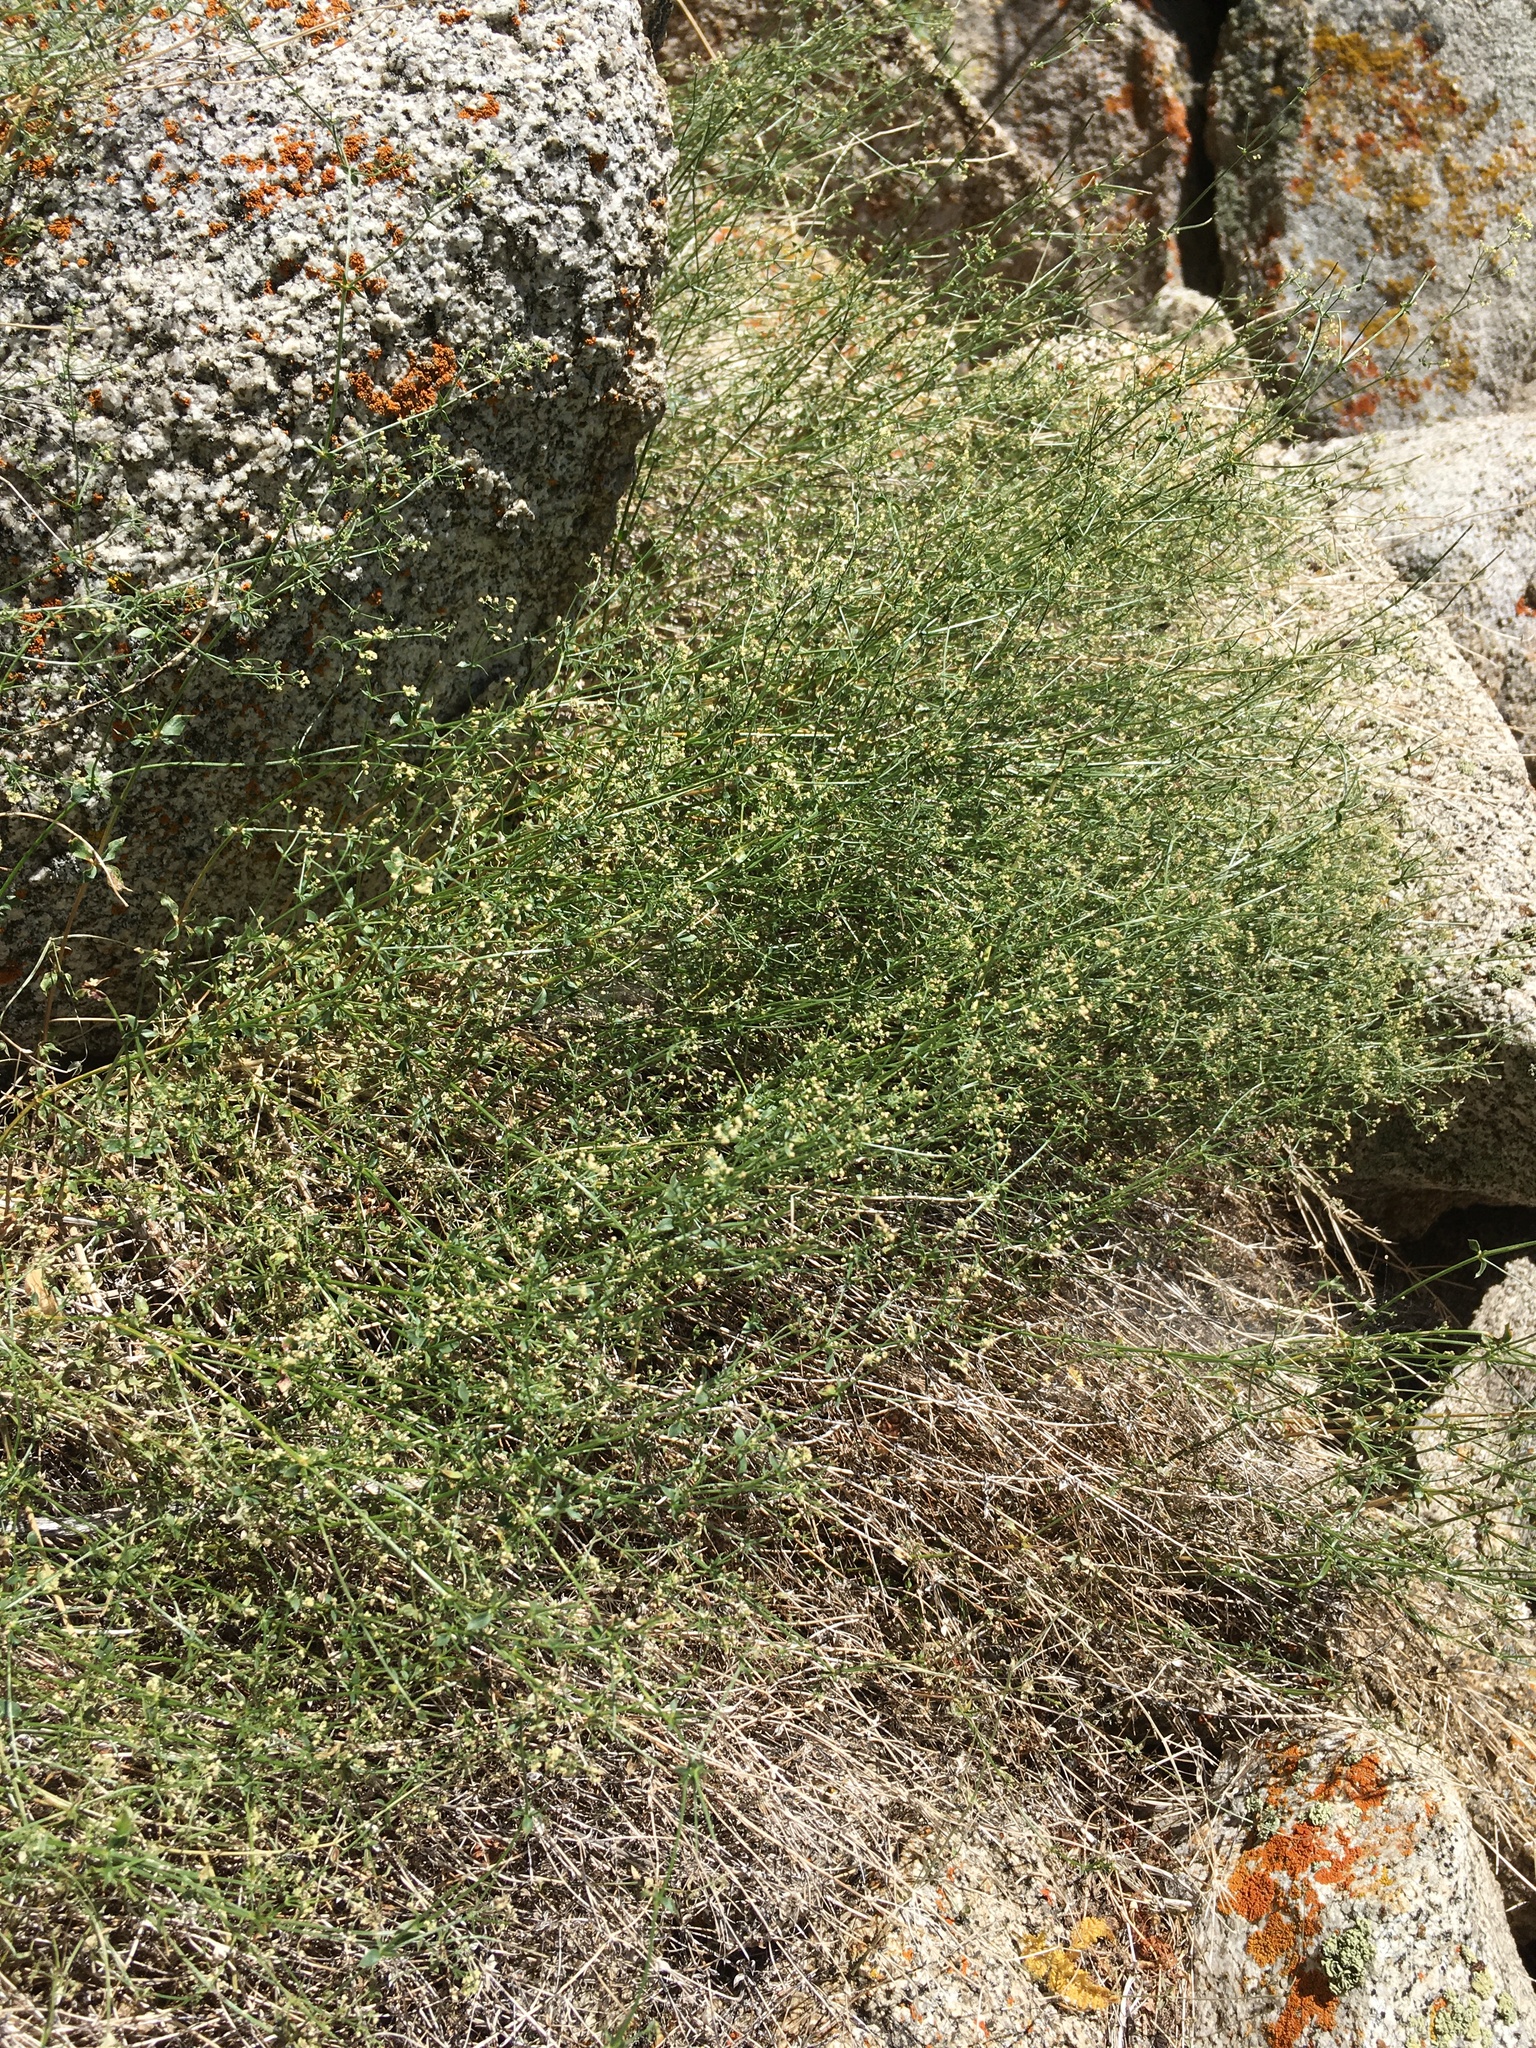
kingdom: Plantae
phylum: Tracheophyta
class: Magnoliopsida
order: Gentianales
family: Rubiaceae
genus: Galium
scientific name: Galium matthewsii
